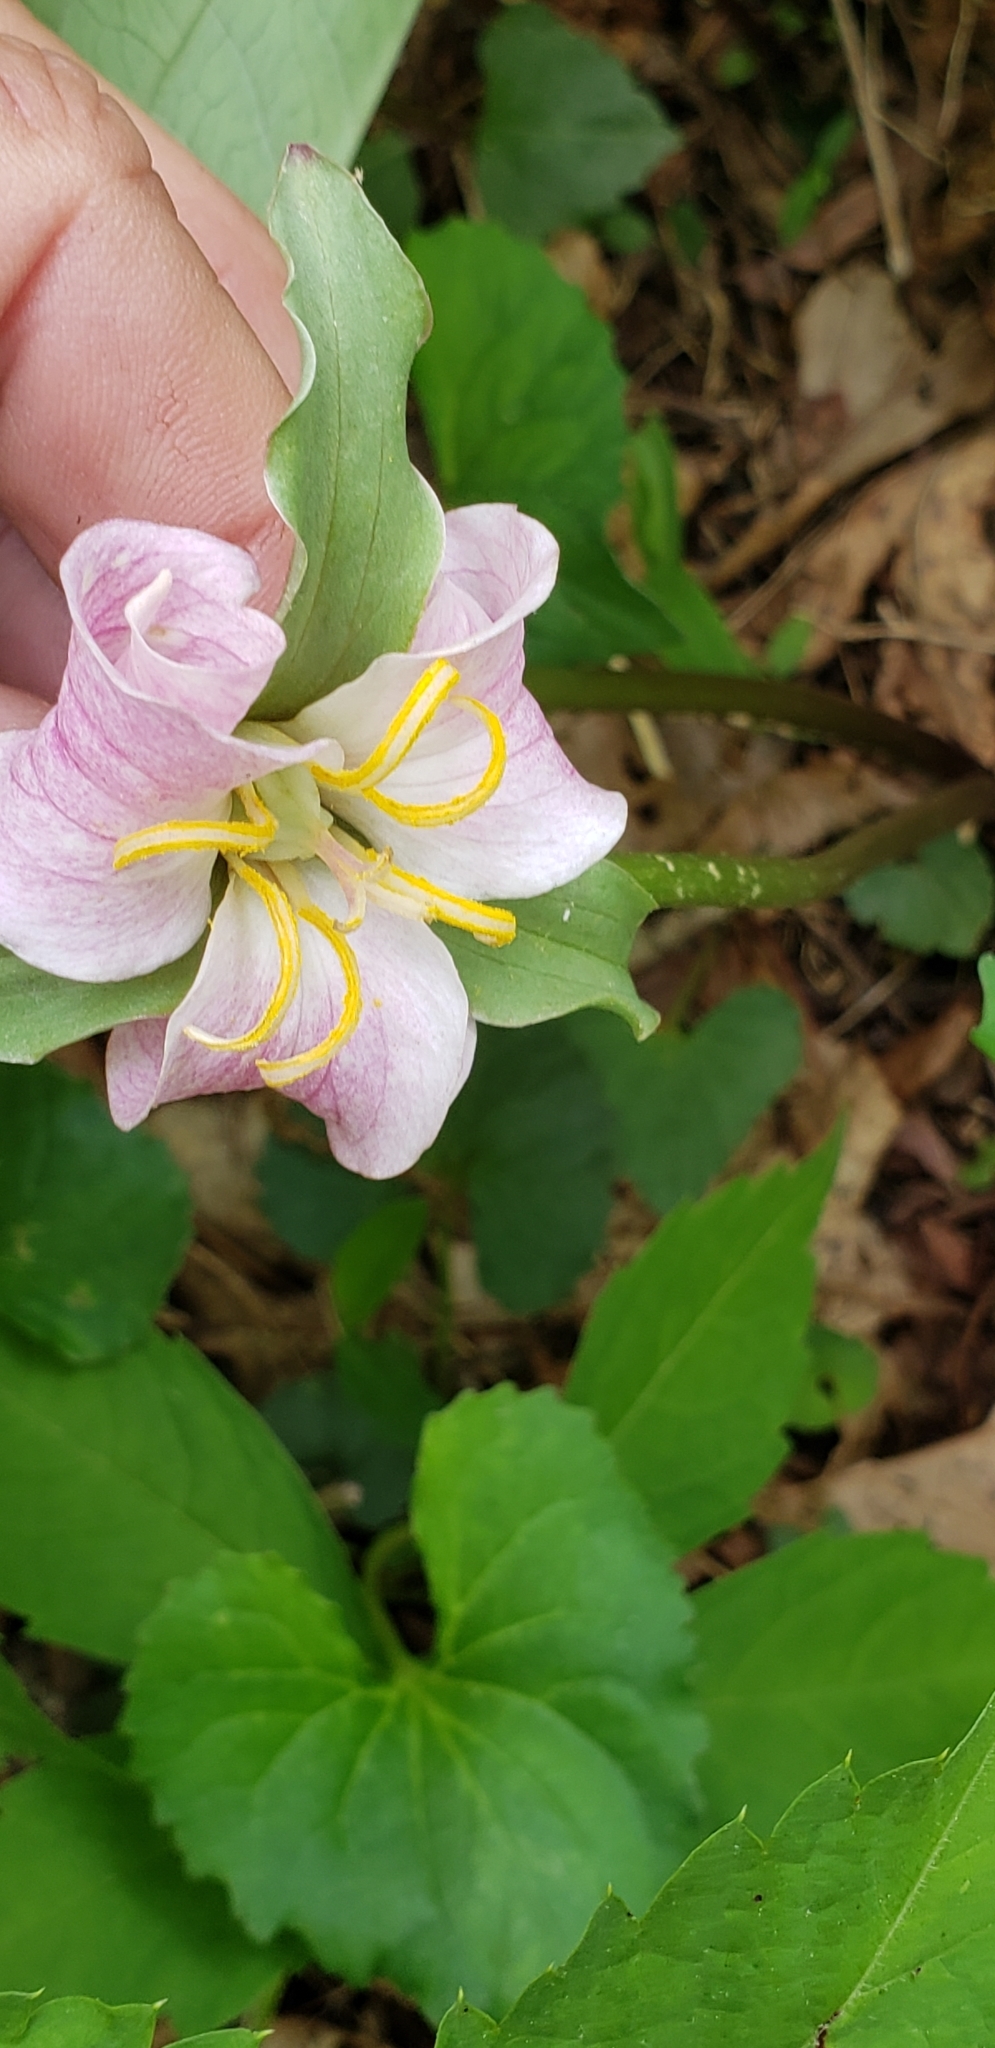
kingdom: Plantae
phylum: Tracheophyta
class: Liliopsida
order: Liliales
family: Melanthiaceae
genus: Trillium
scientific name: Trillium catesbaei
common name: Bashful trillium
